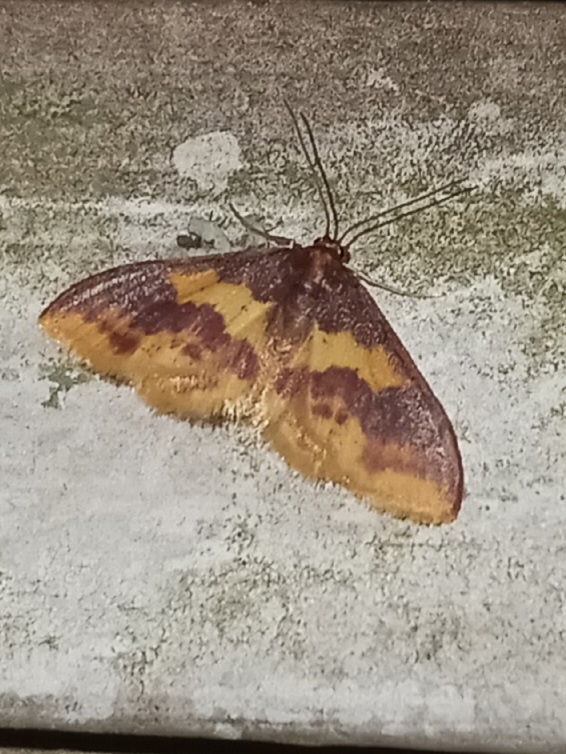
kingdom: Animalia
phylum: Arthropoda
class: Insecta
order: Lepidoptera
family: Geometridae
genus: Lophosis
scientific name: Lophosis labeculata
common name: Stained lophosis moth
